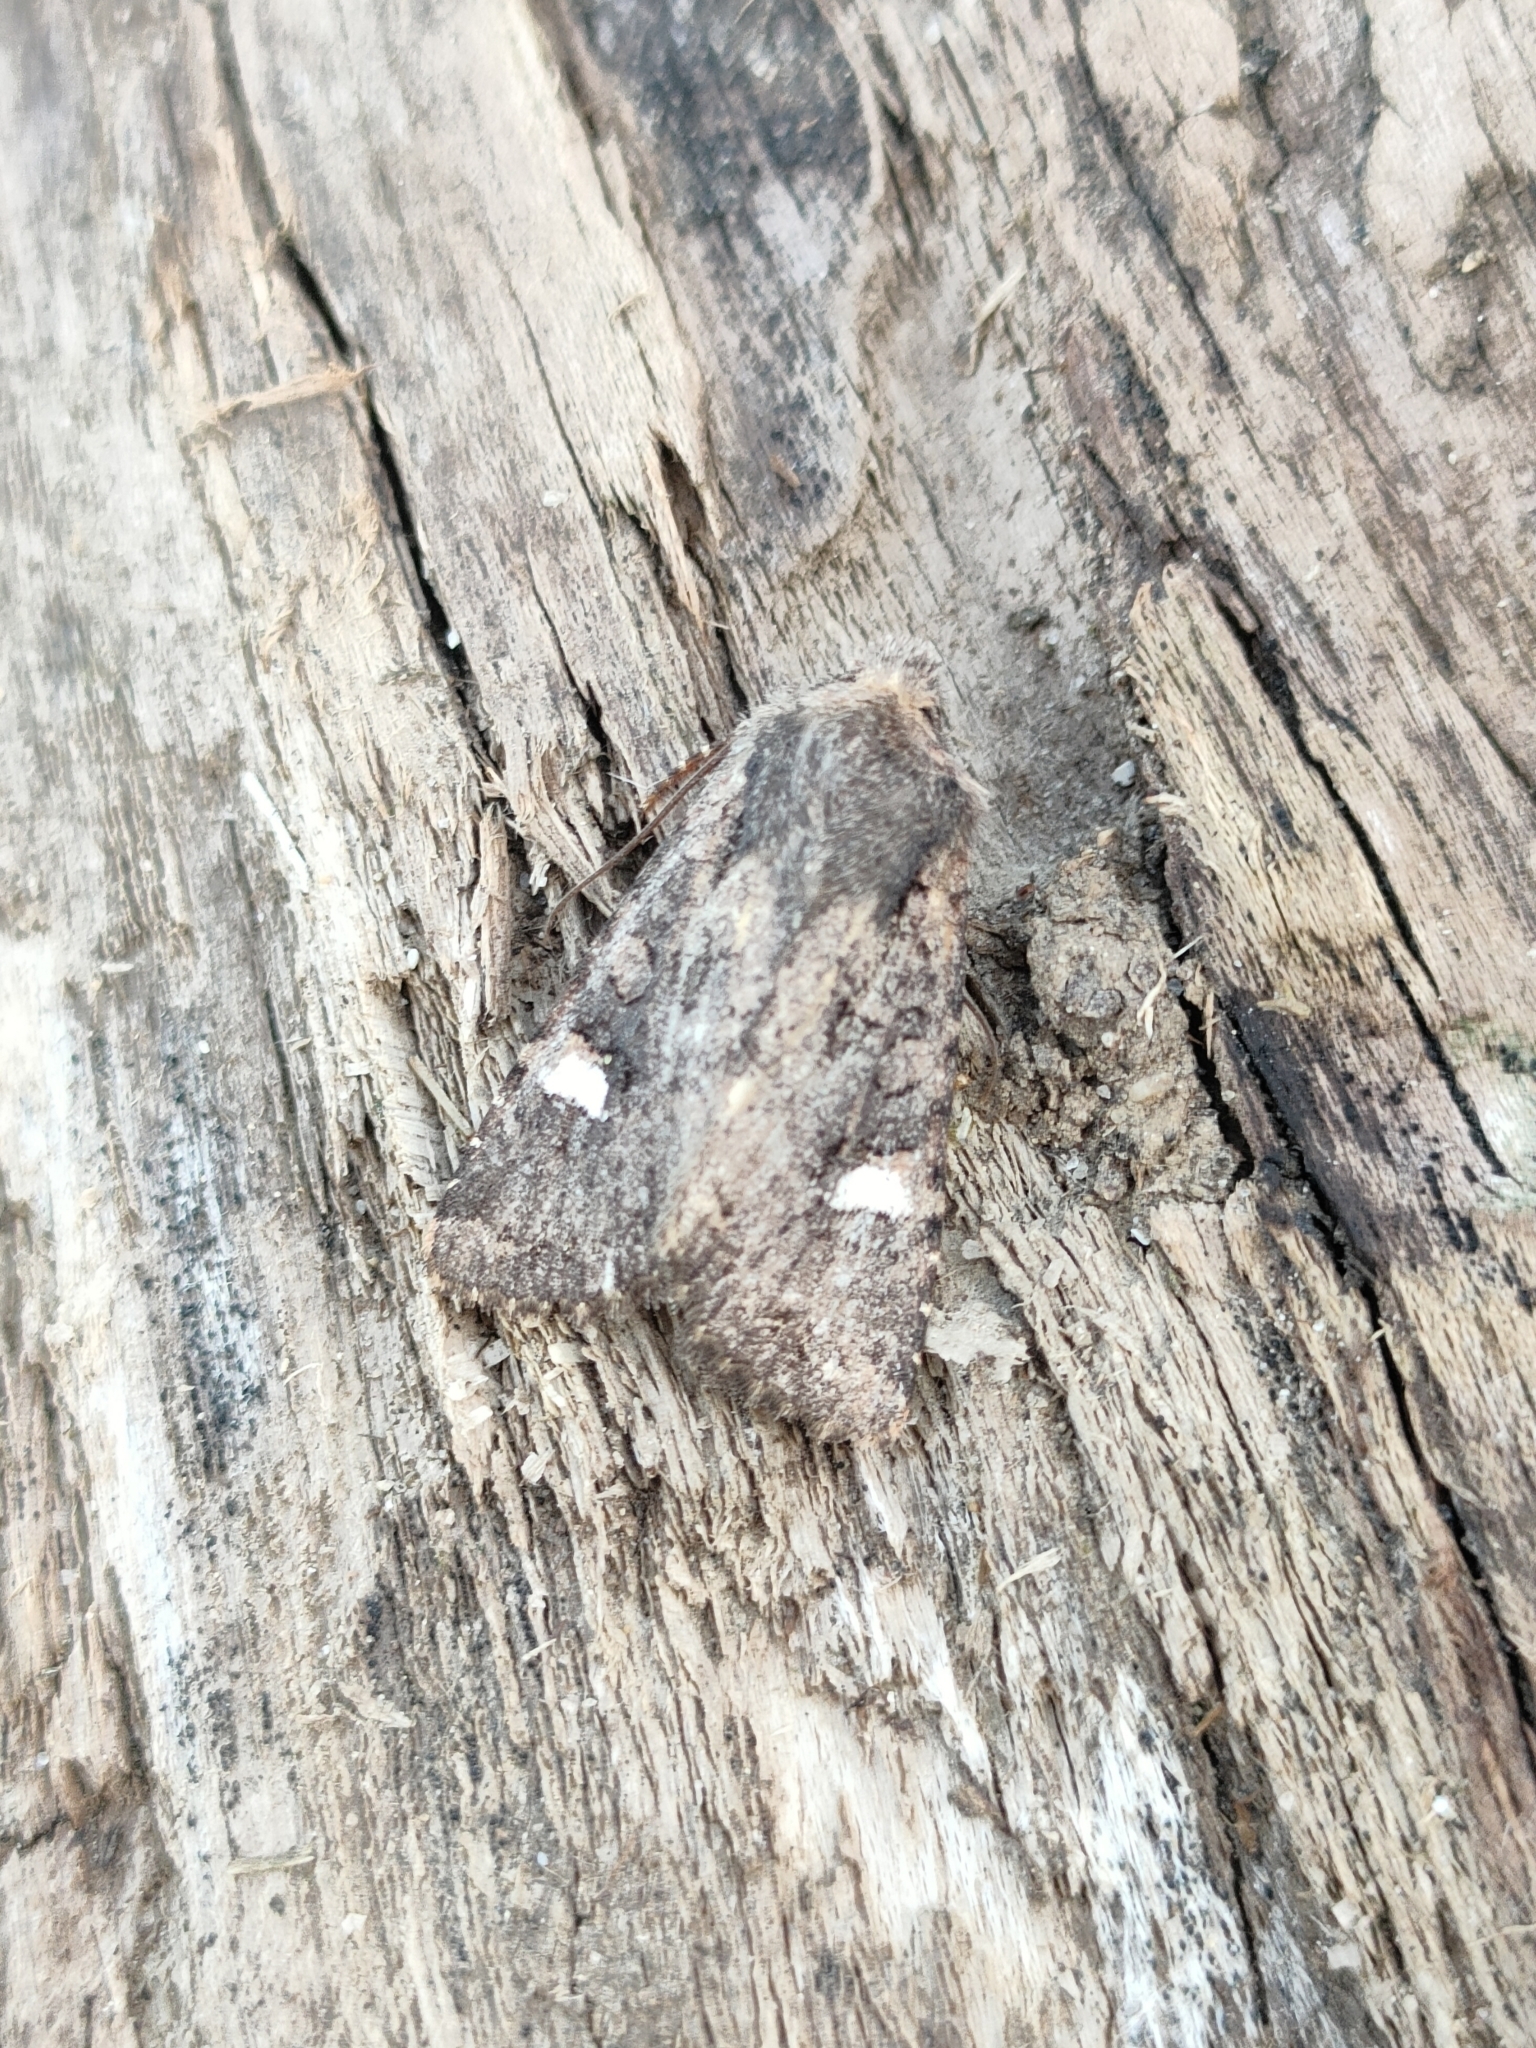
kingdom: Animalia
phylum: Arthropoda
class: Insecta
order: Lepidoptera
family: Noctuidae
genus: Dryobota
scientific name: Dryobota labecula
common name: Oak rustic
